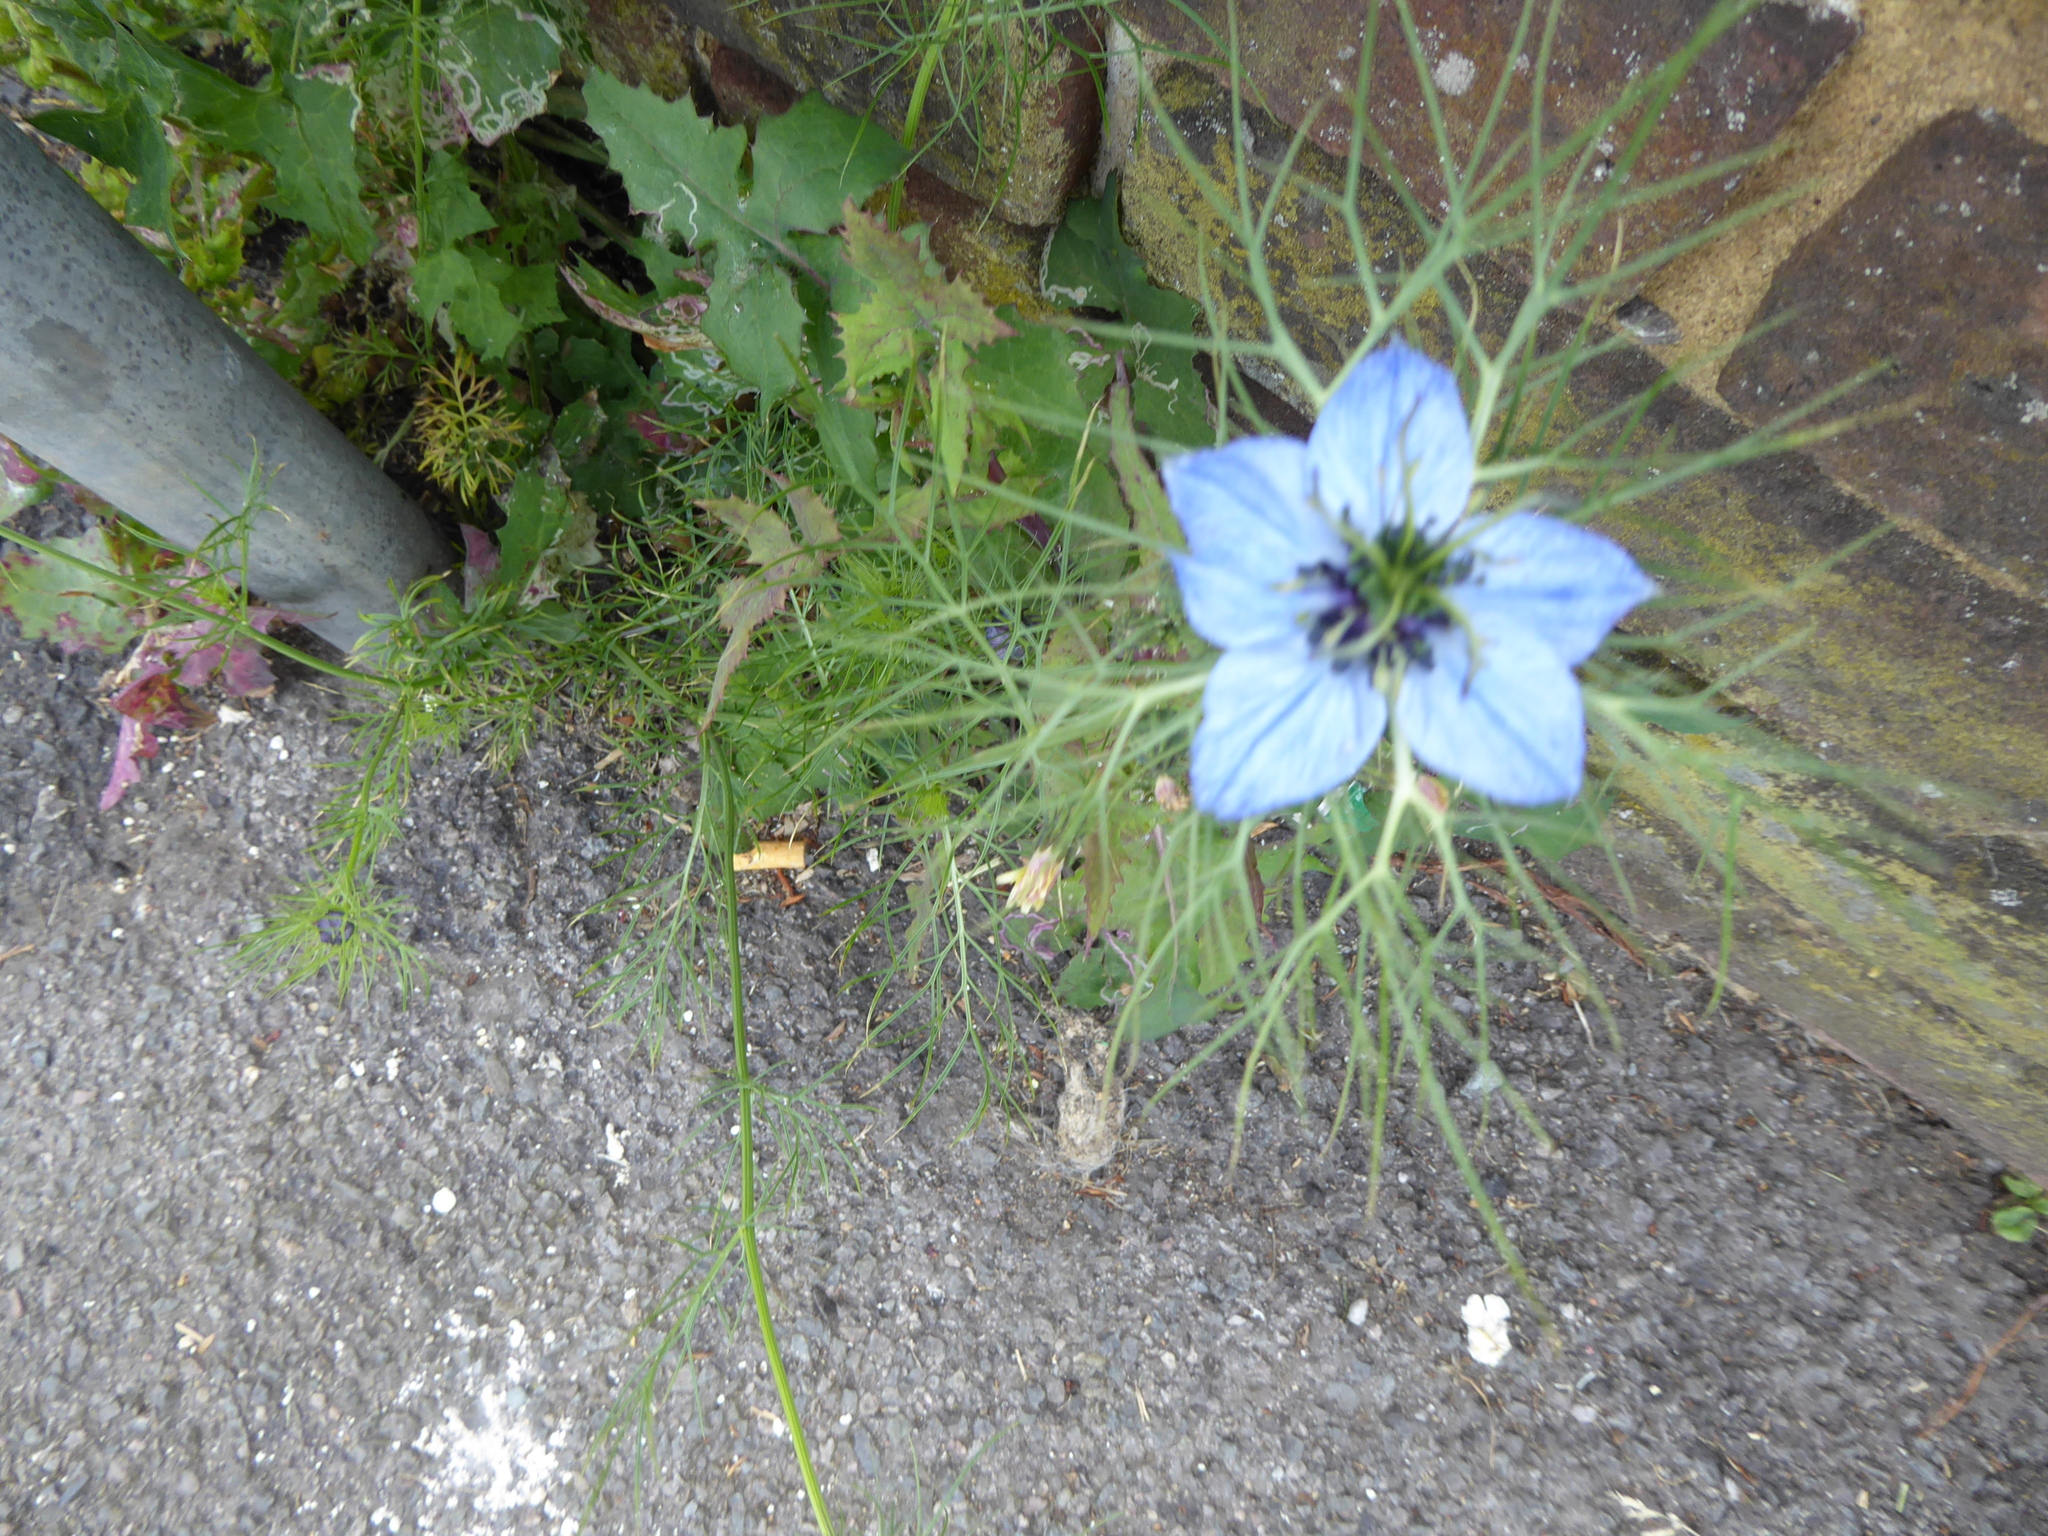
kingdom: Plantae
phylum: Tracheophyta
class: Magnoliopsida
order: Ranunculales
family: Ranunculaceae
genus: Nigella
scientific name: Nigella damascena
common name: Love-in-a-mist
